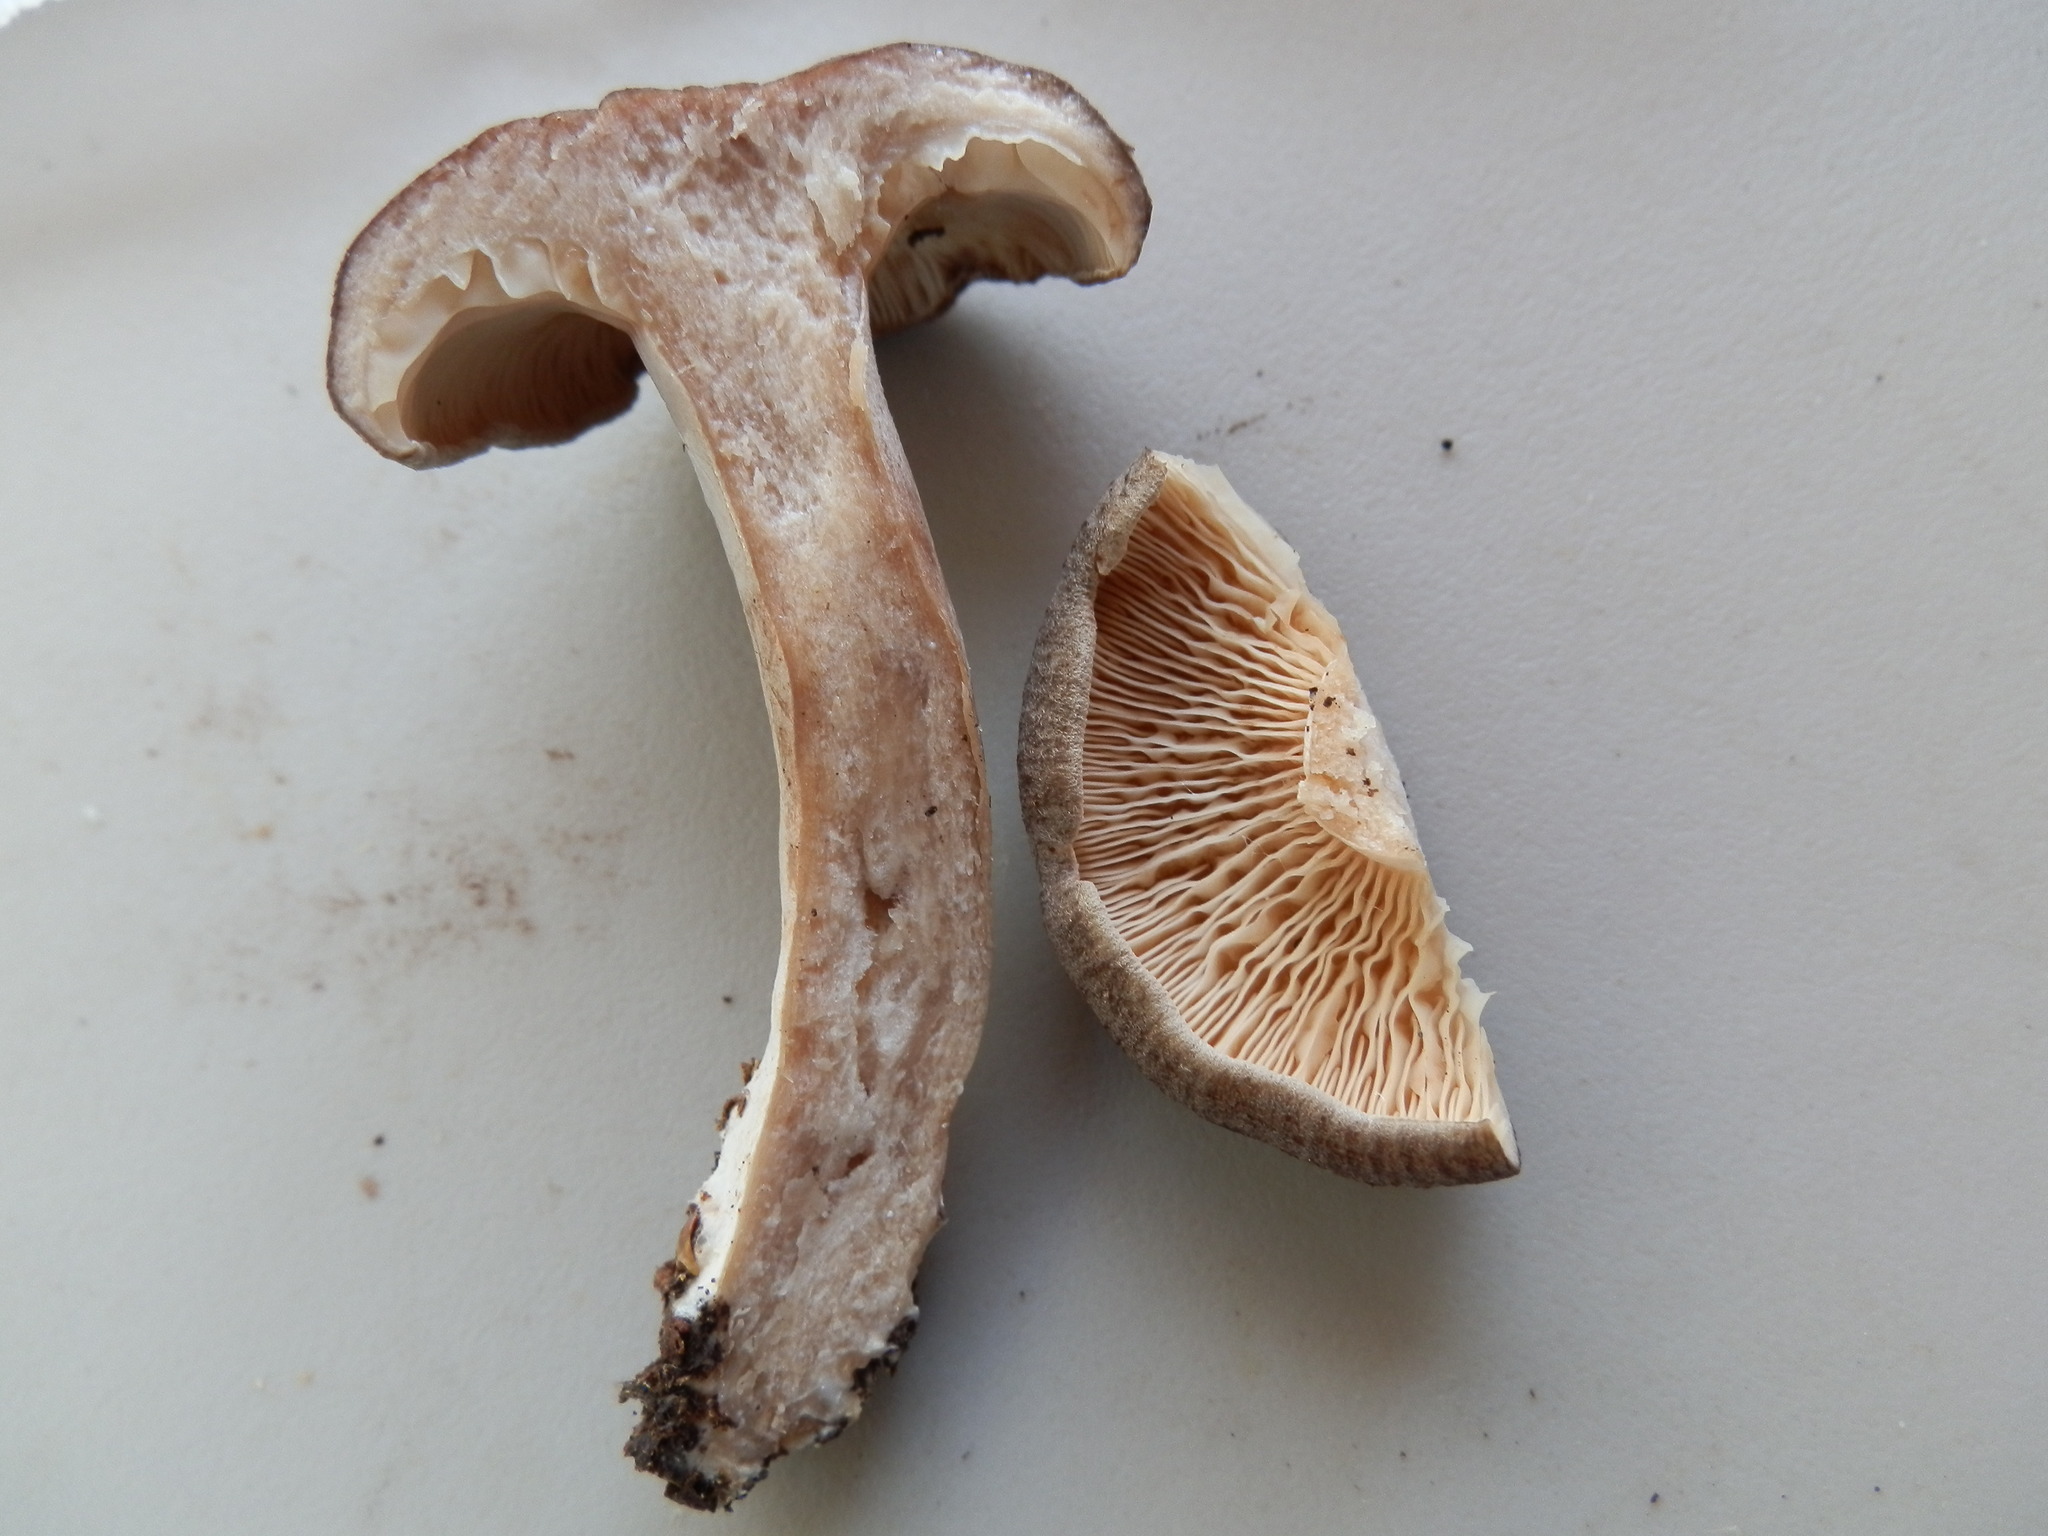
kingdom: Fungi
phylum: Basidiomycota
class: Agaricomycetes
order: Russulales
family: Russulaceae
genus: Lactarius
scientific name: Lactarius hibbardiae
